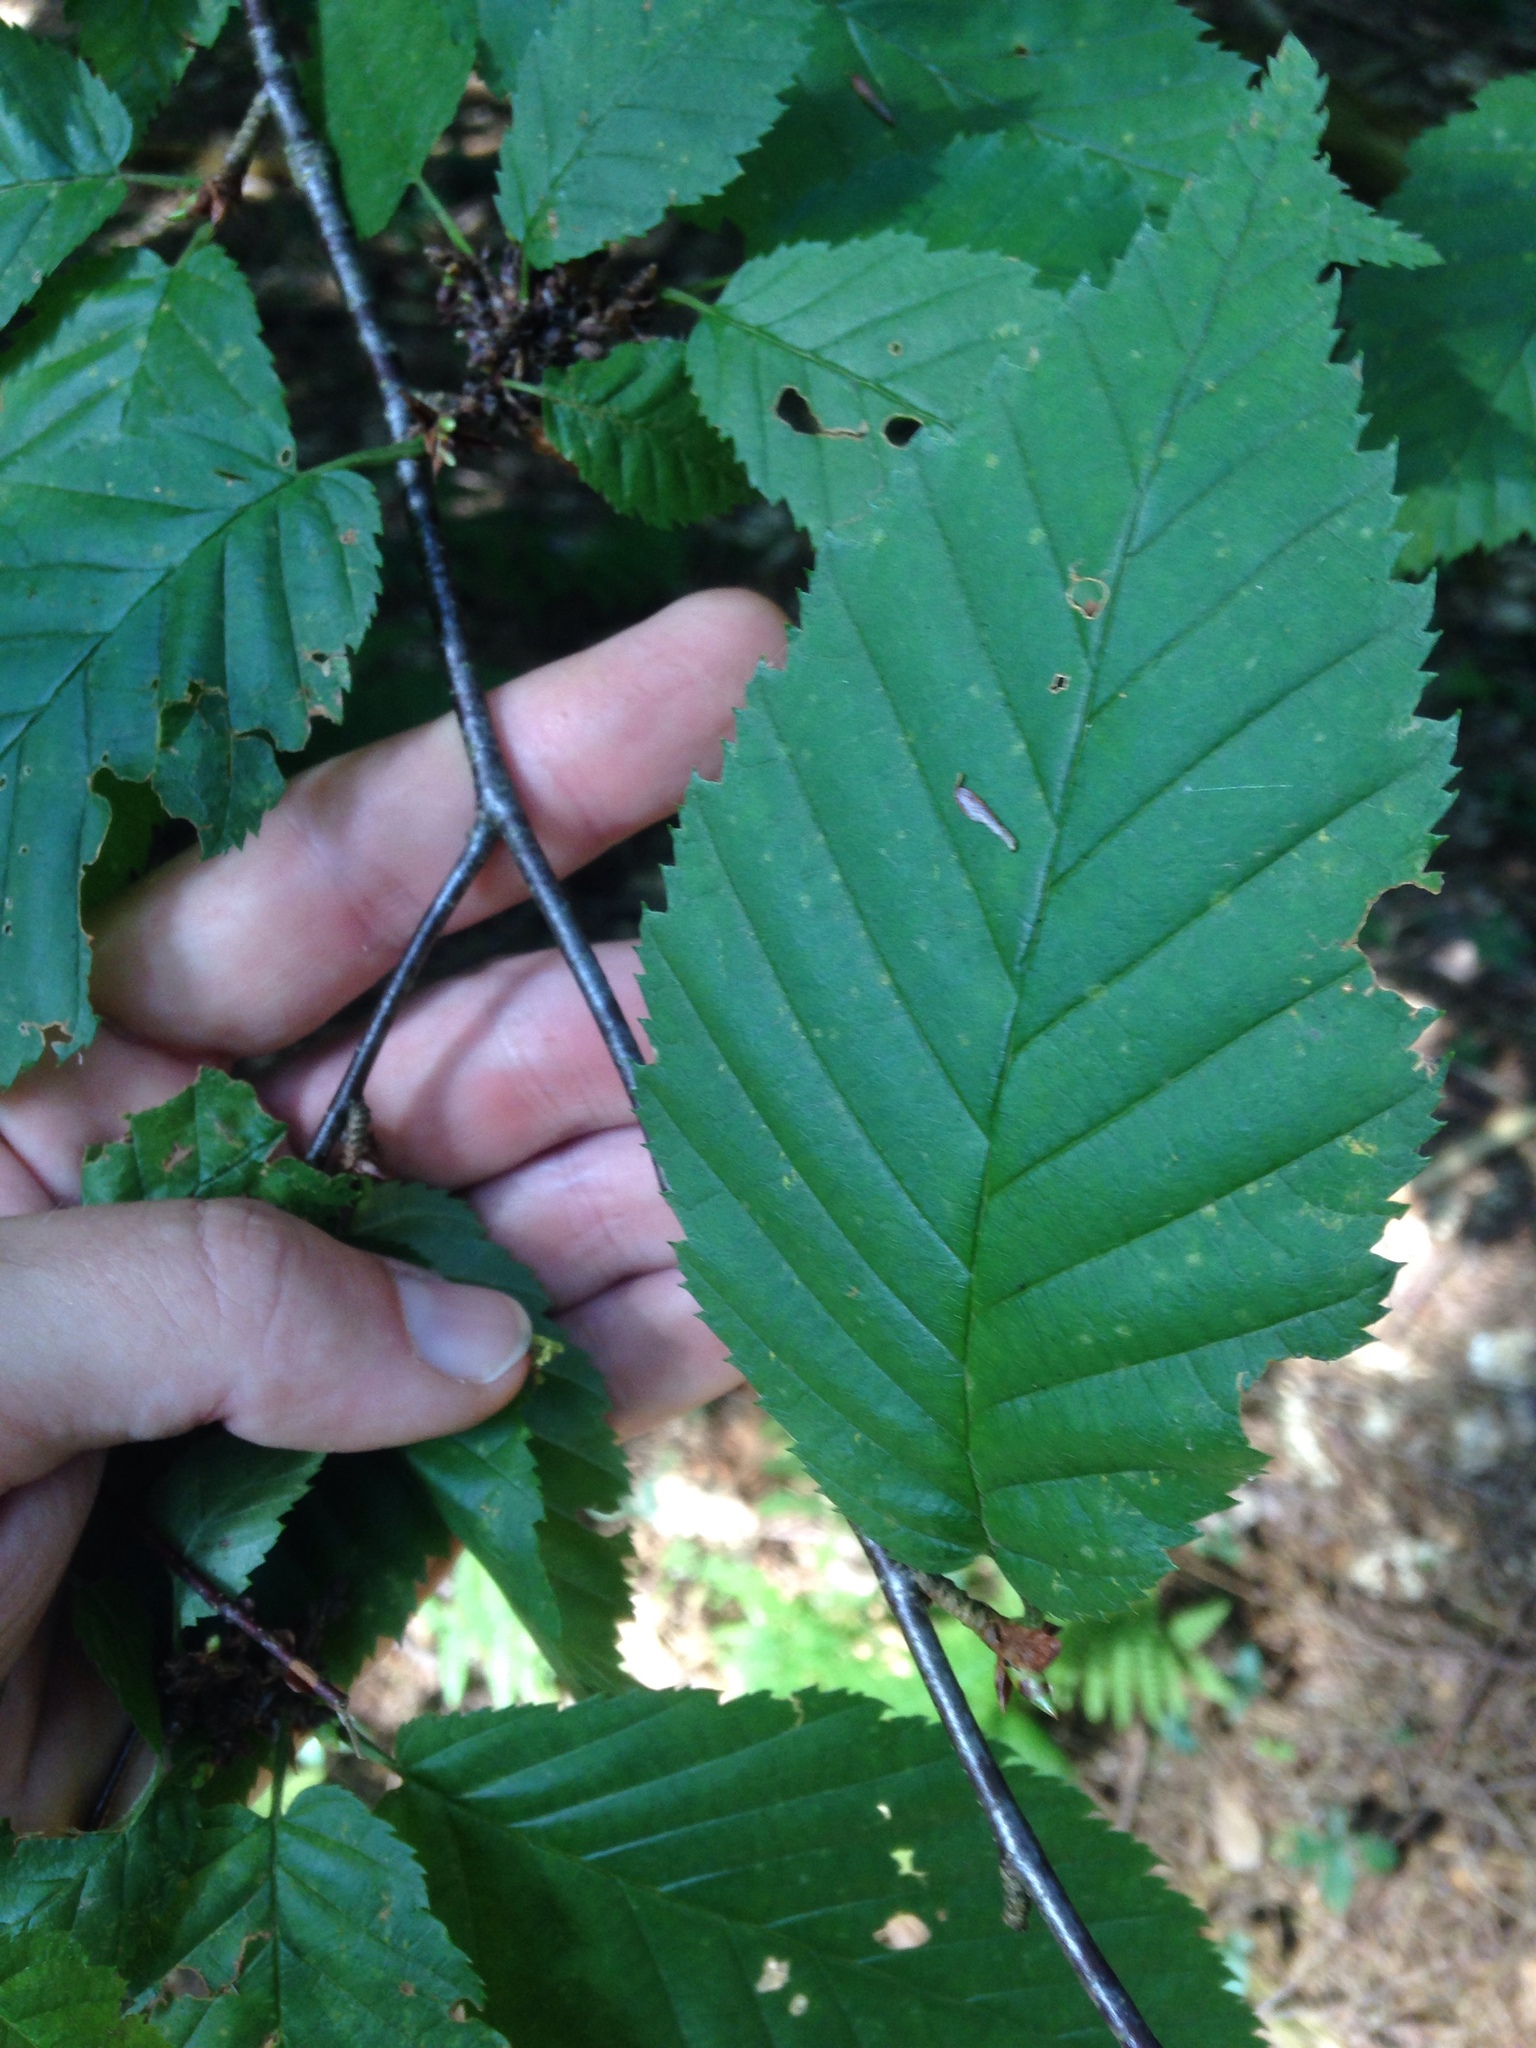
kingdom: Plantae
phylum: Tracheophyta
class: Magnoliopsida
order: Fagales
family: Betulaceae
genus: Betula
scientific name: Betula alleghaniensis
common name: Yellow birch
